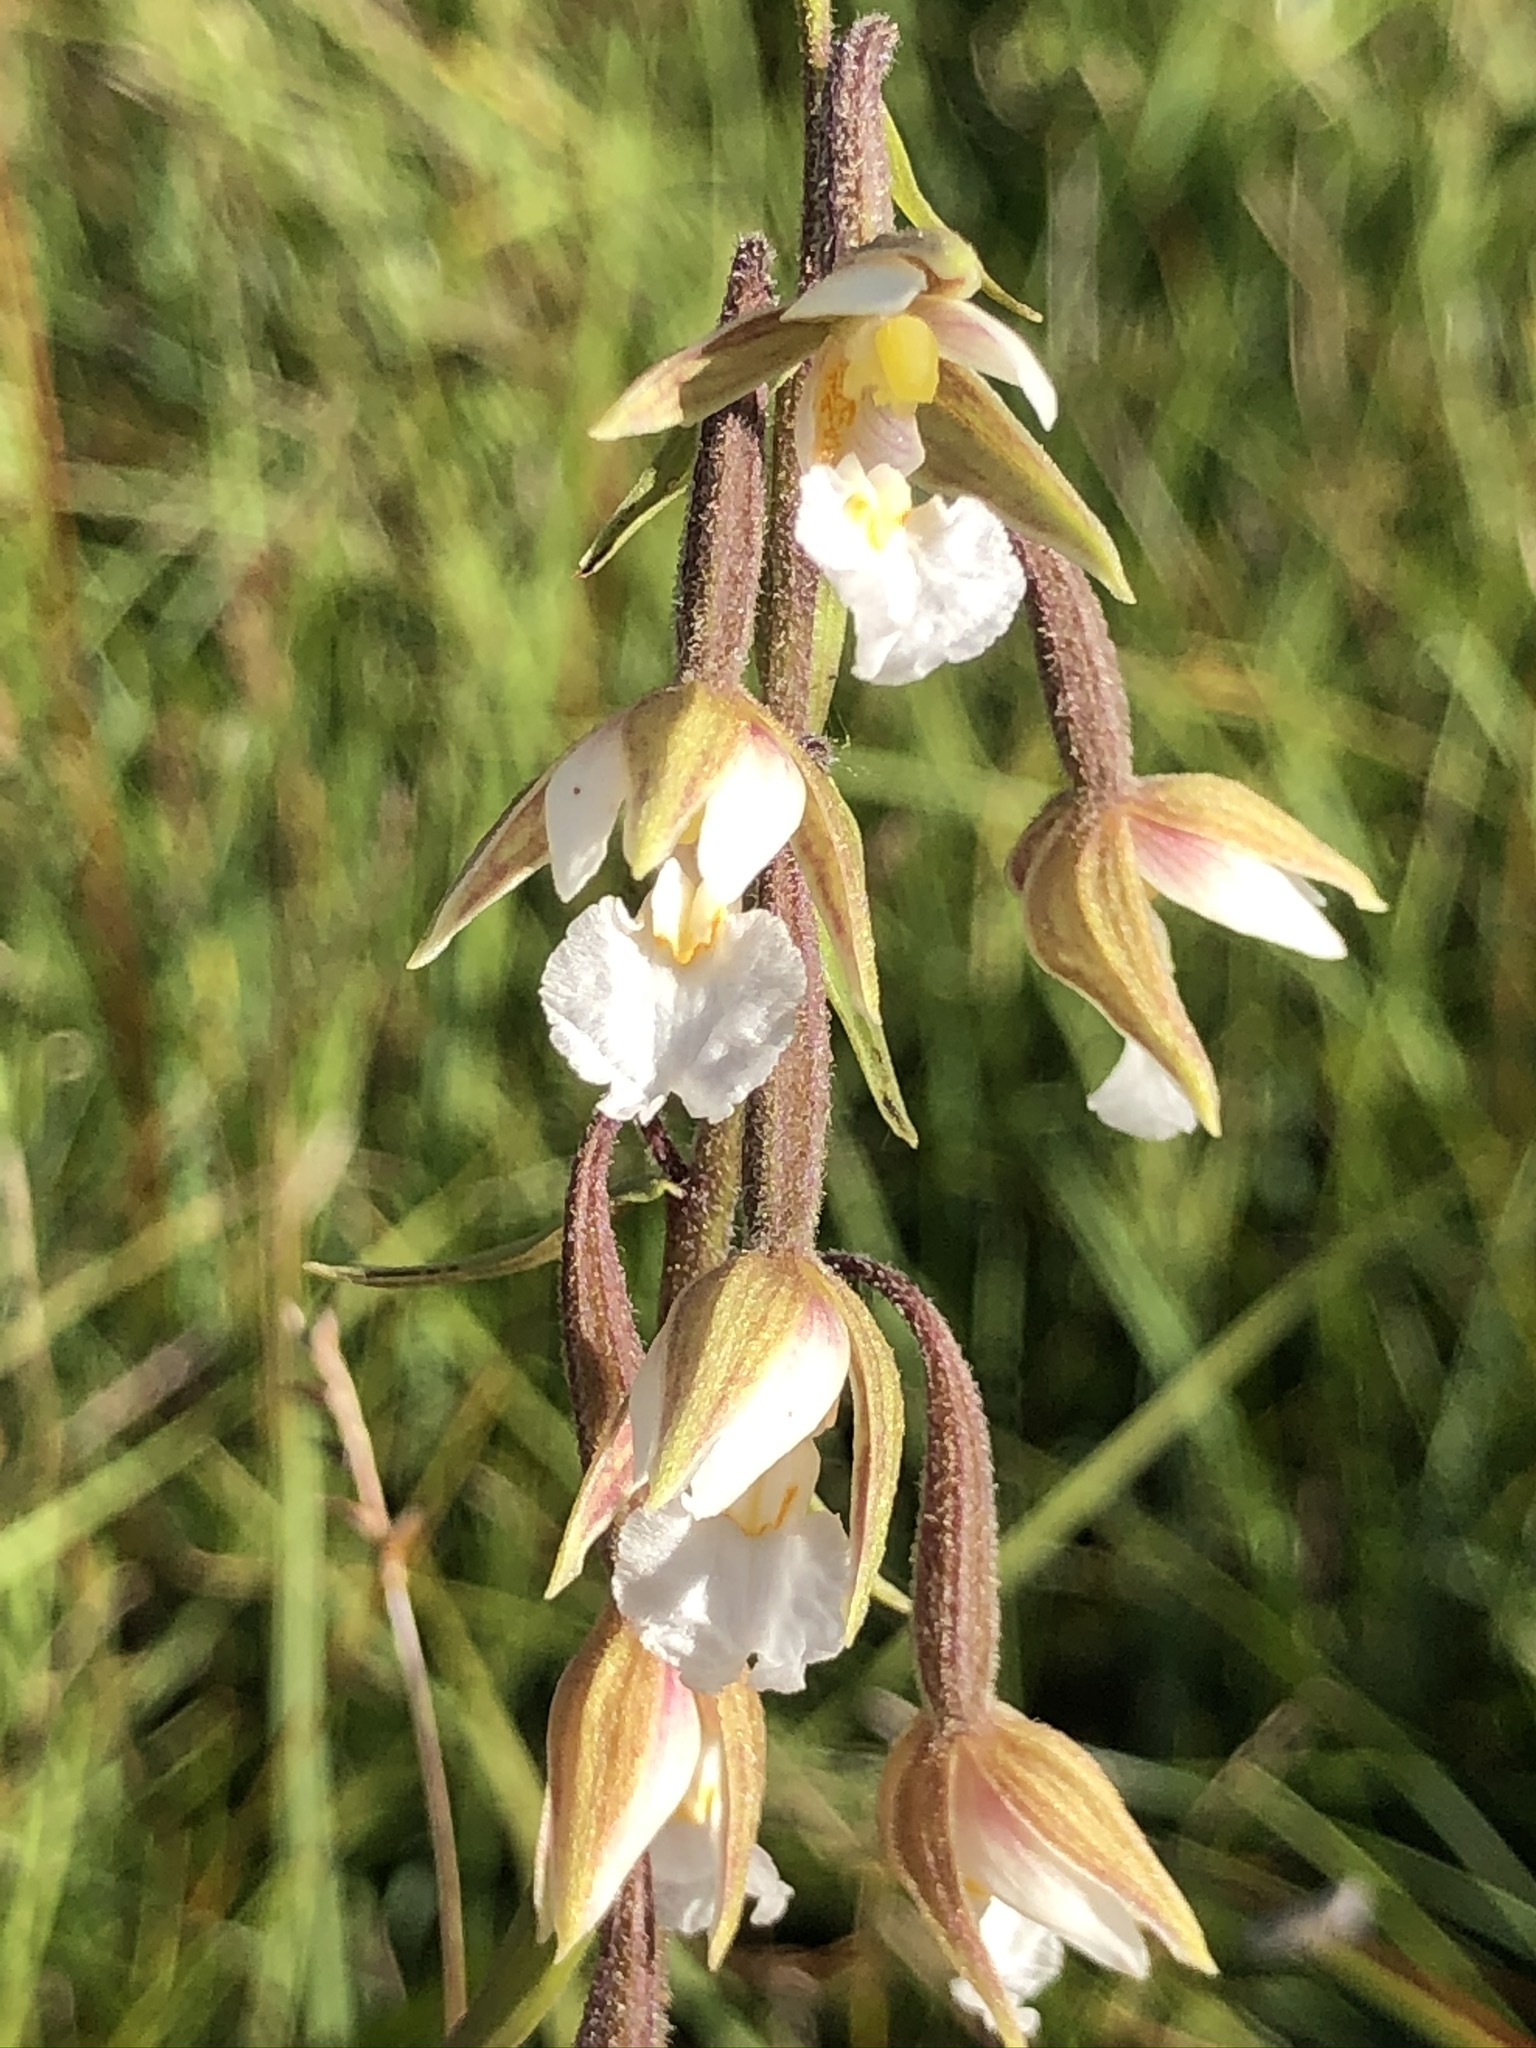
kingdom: Plantae
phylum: Tracheophyta
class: Liliopsida
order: Asparagales
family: Orchidaceae
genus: Epipactis
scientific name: Epipactis palustris
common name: Marsh helleborine
